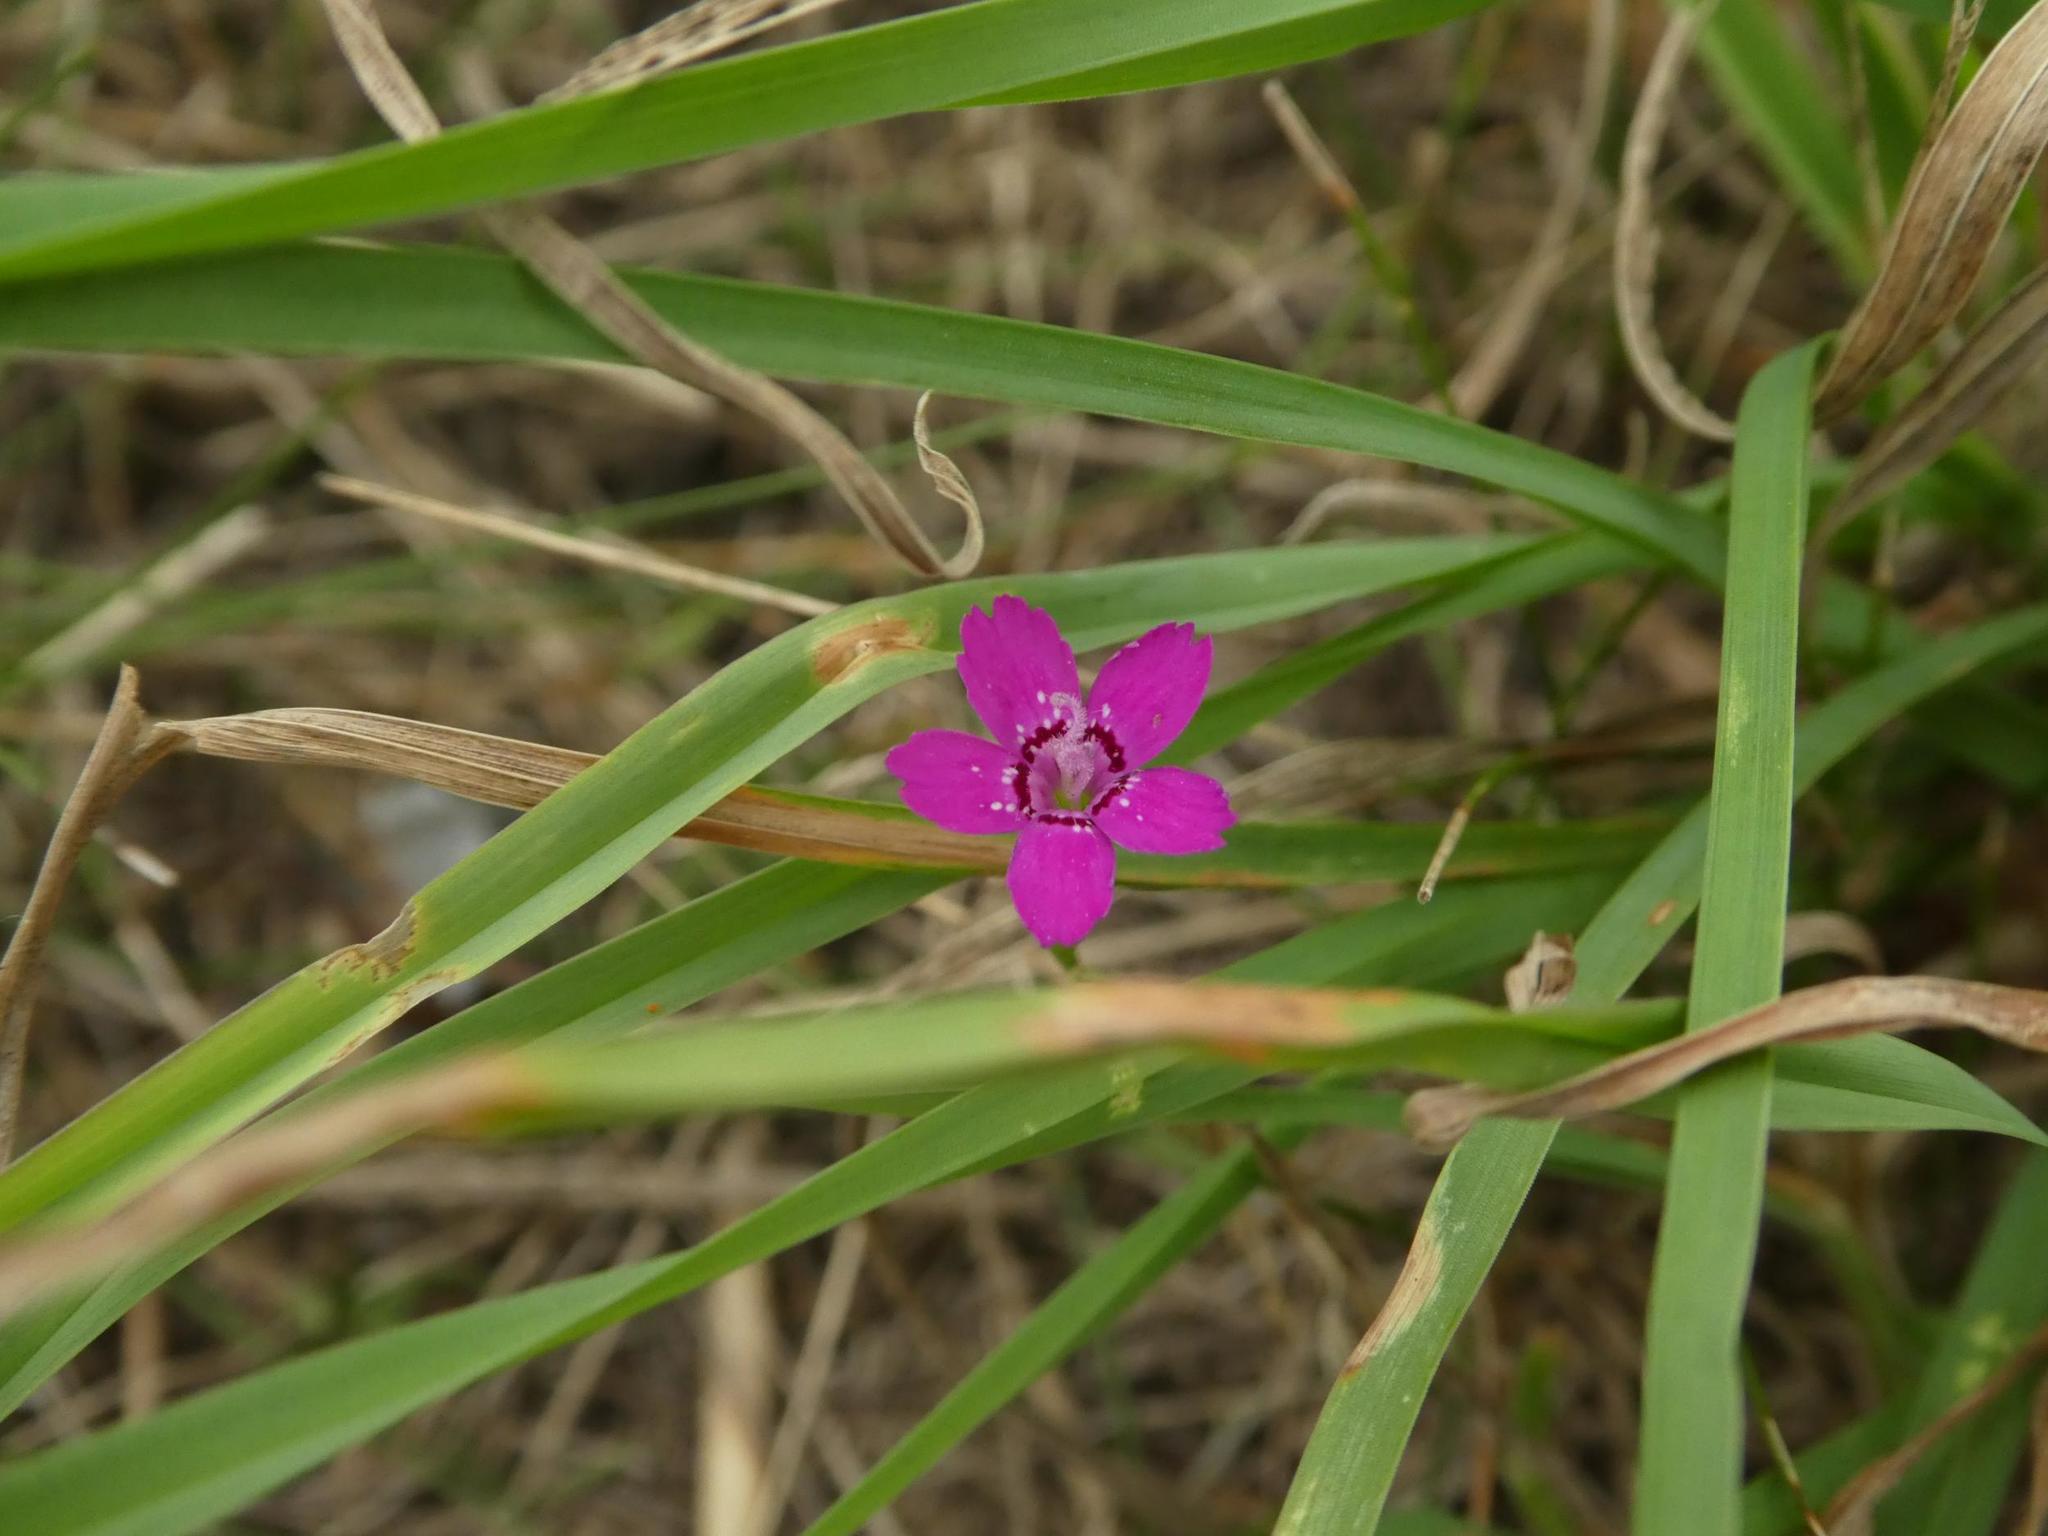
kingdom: Plantae
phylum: Tracheophyta
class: Magnoliopsida
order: Caryophyllales
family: Caryophyllaceae
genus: Dianthus
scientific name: Dianthus deltoides
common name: Maiden pink
